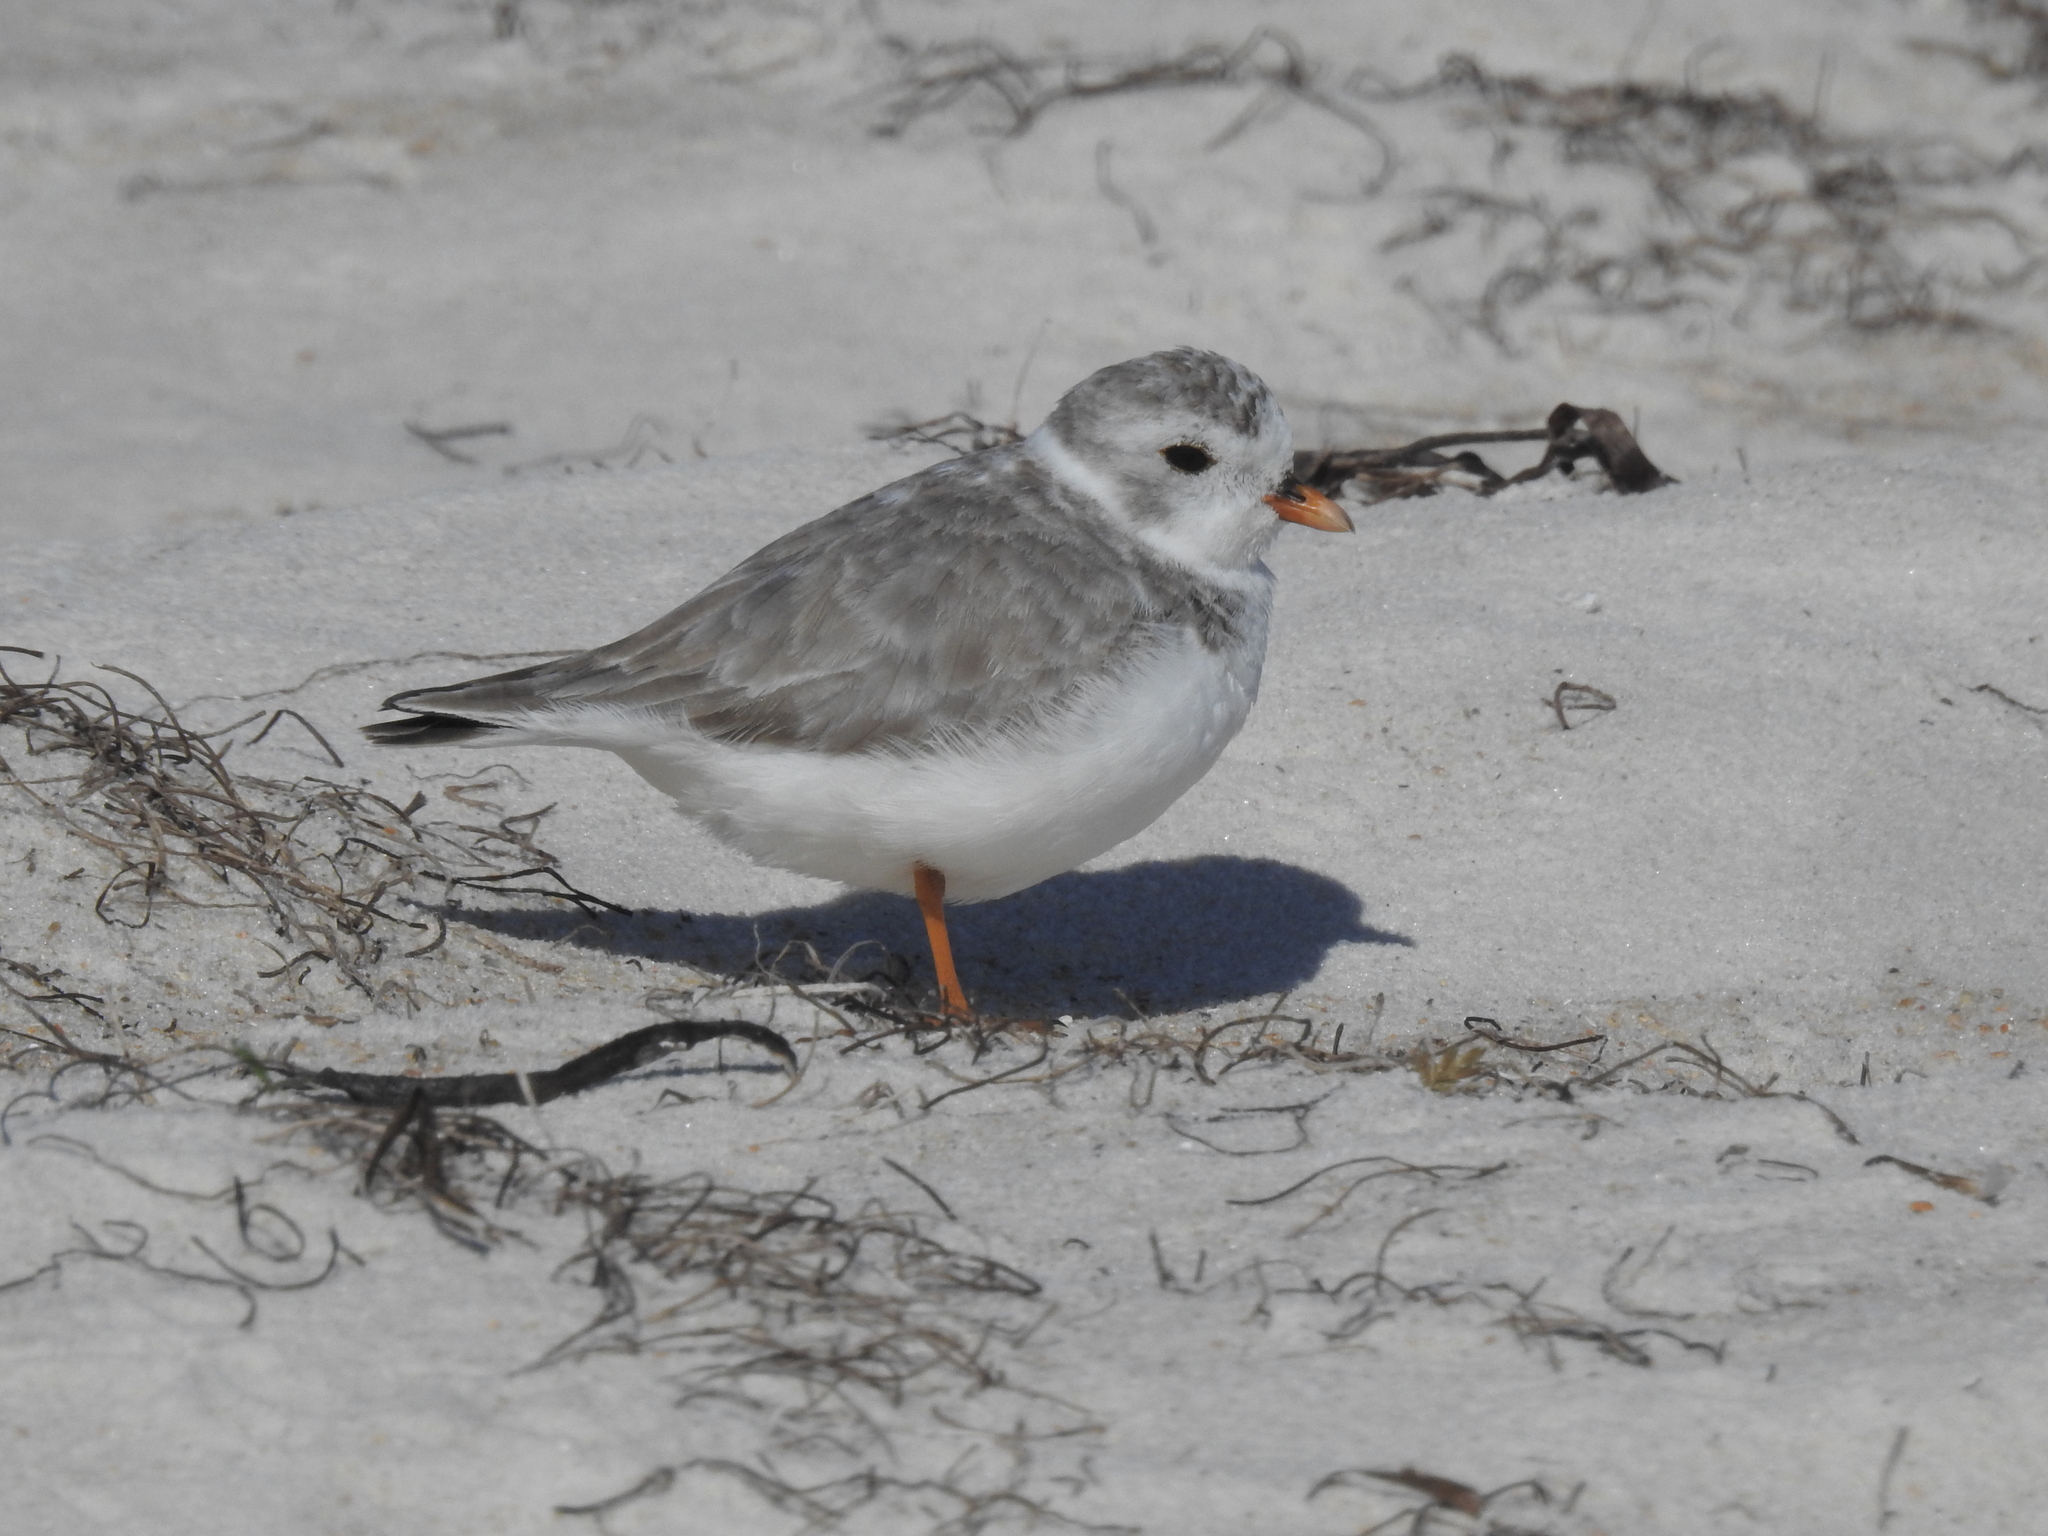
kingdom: Animalia
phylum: Chordata
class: Aves
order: Charadriiformes
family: Charadriidae
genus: Charadrius
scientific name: Charadrius melodus
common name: Piping plover
